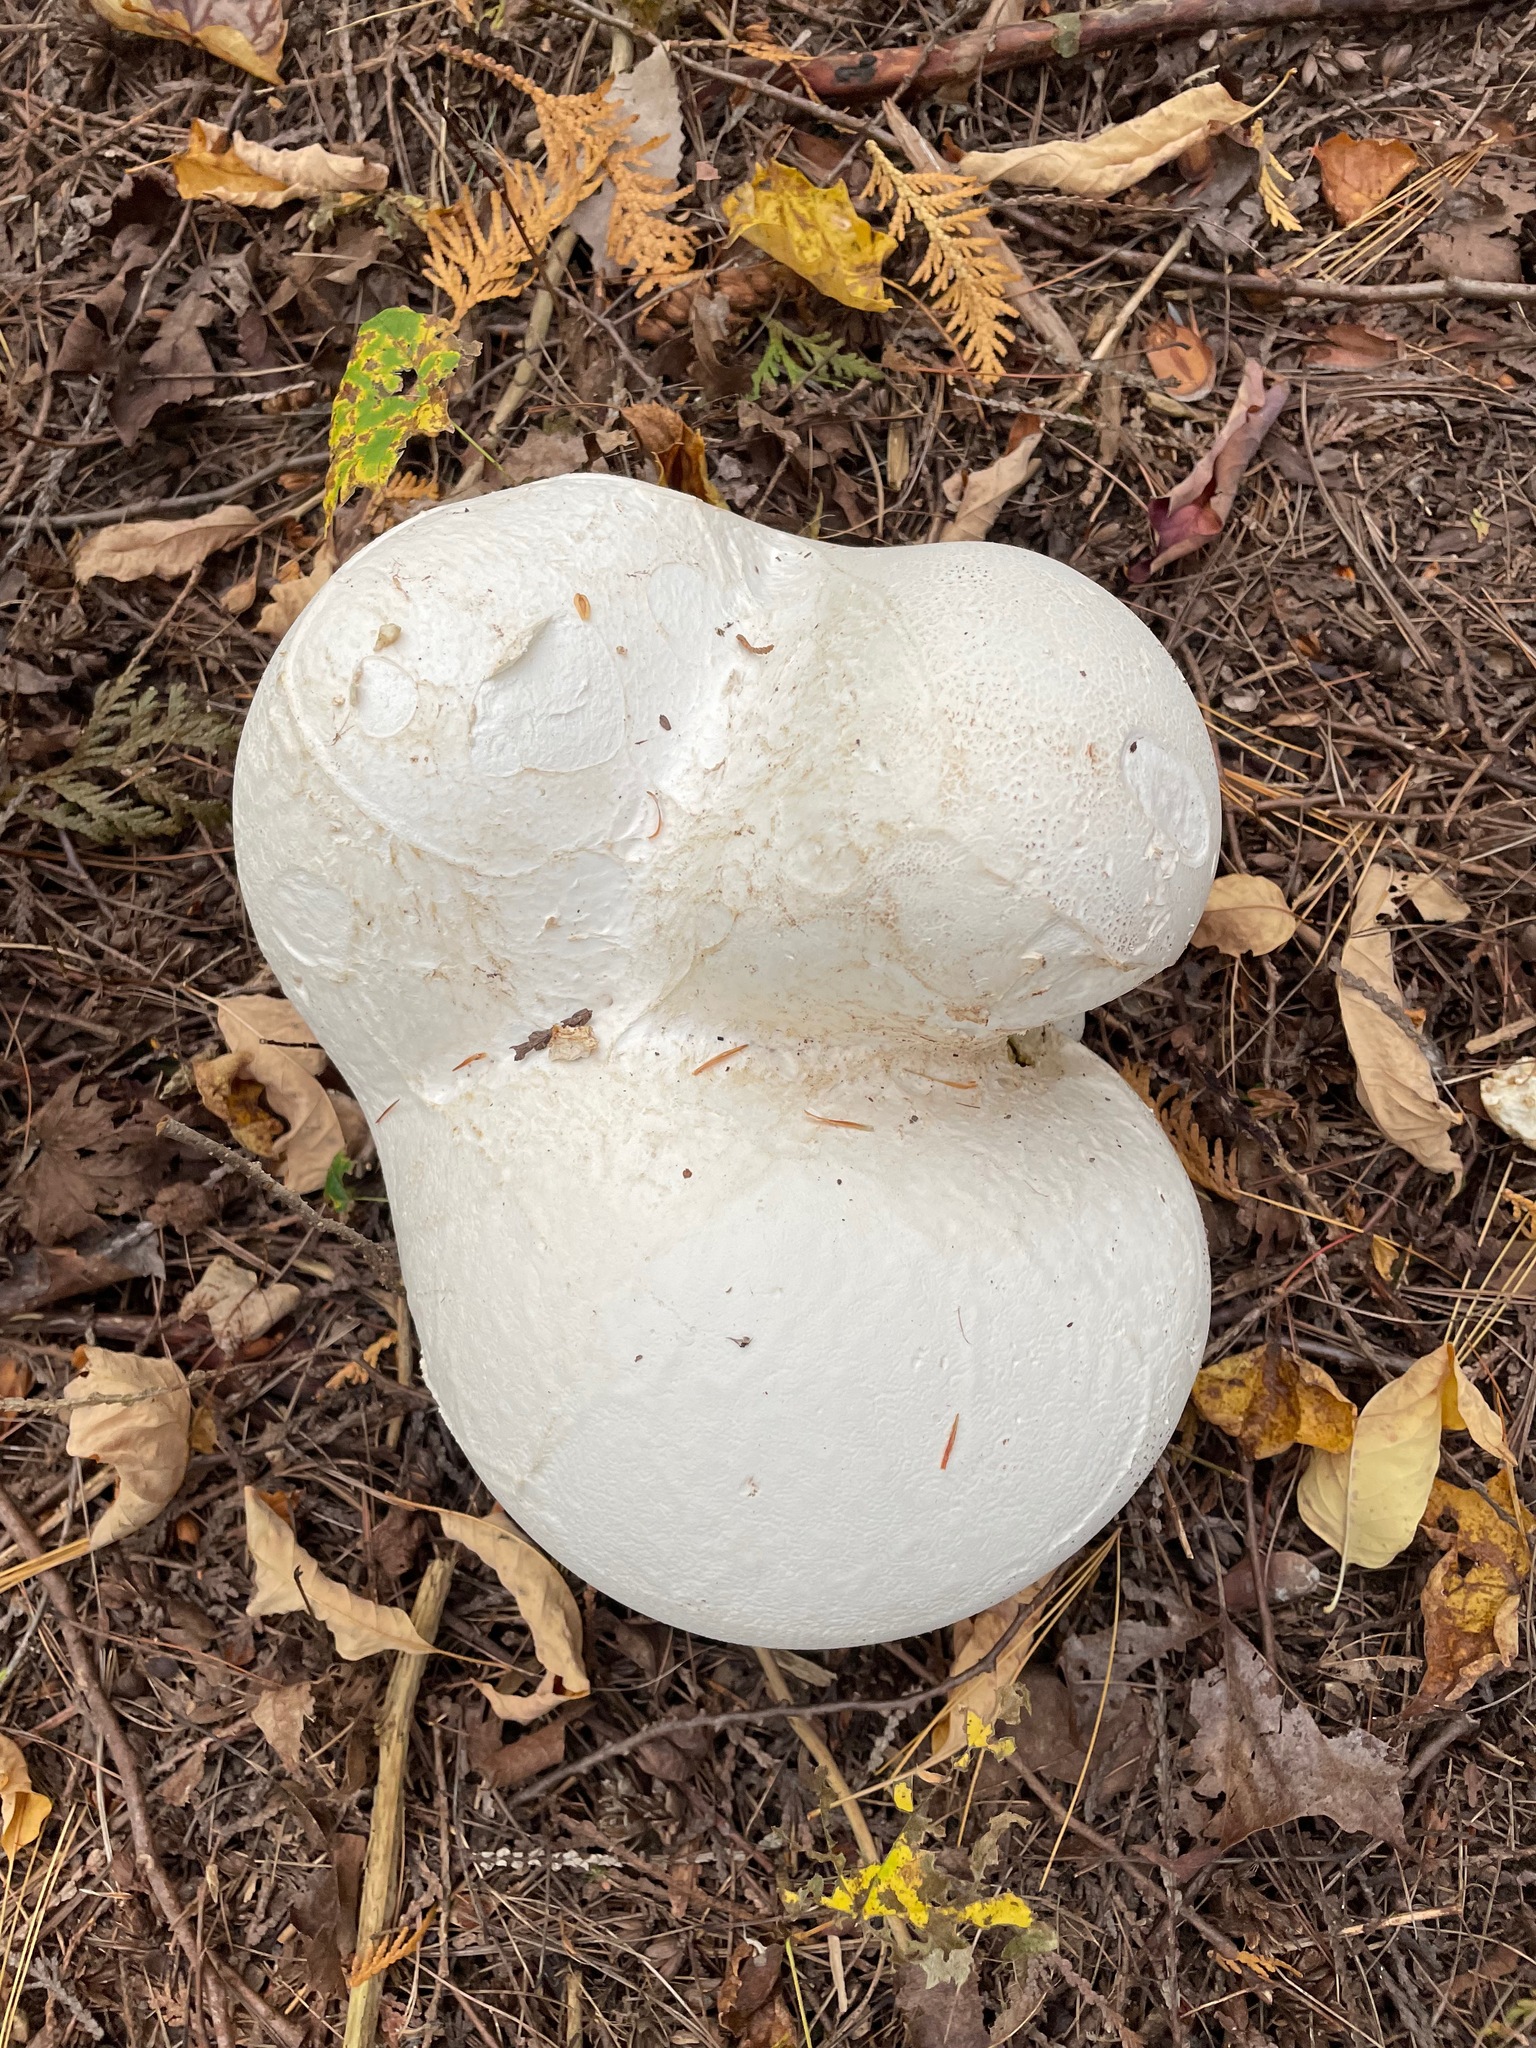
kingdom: Fungi
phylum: Basidiomycota
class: Agaricomycetes
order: Agaricales
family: Lycoperdaceae
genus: Calvatia
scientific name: Calvatia gigantea
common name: Giant puffball
